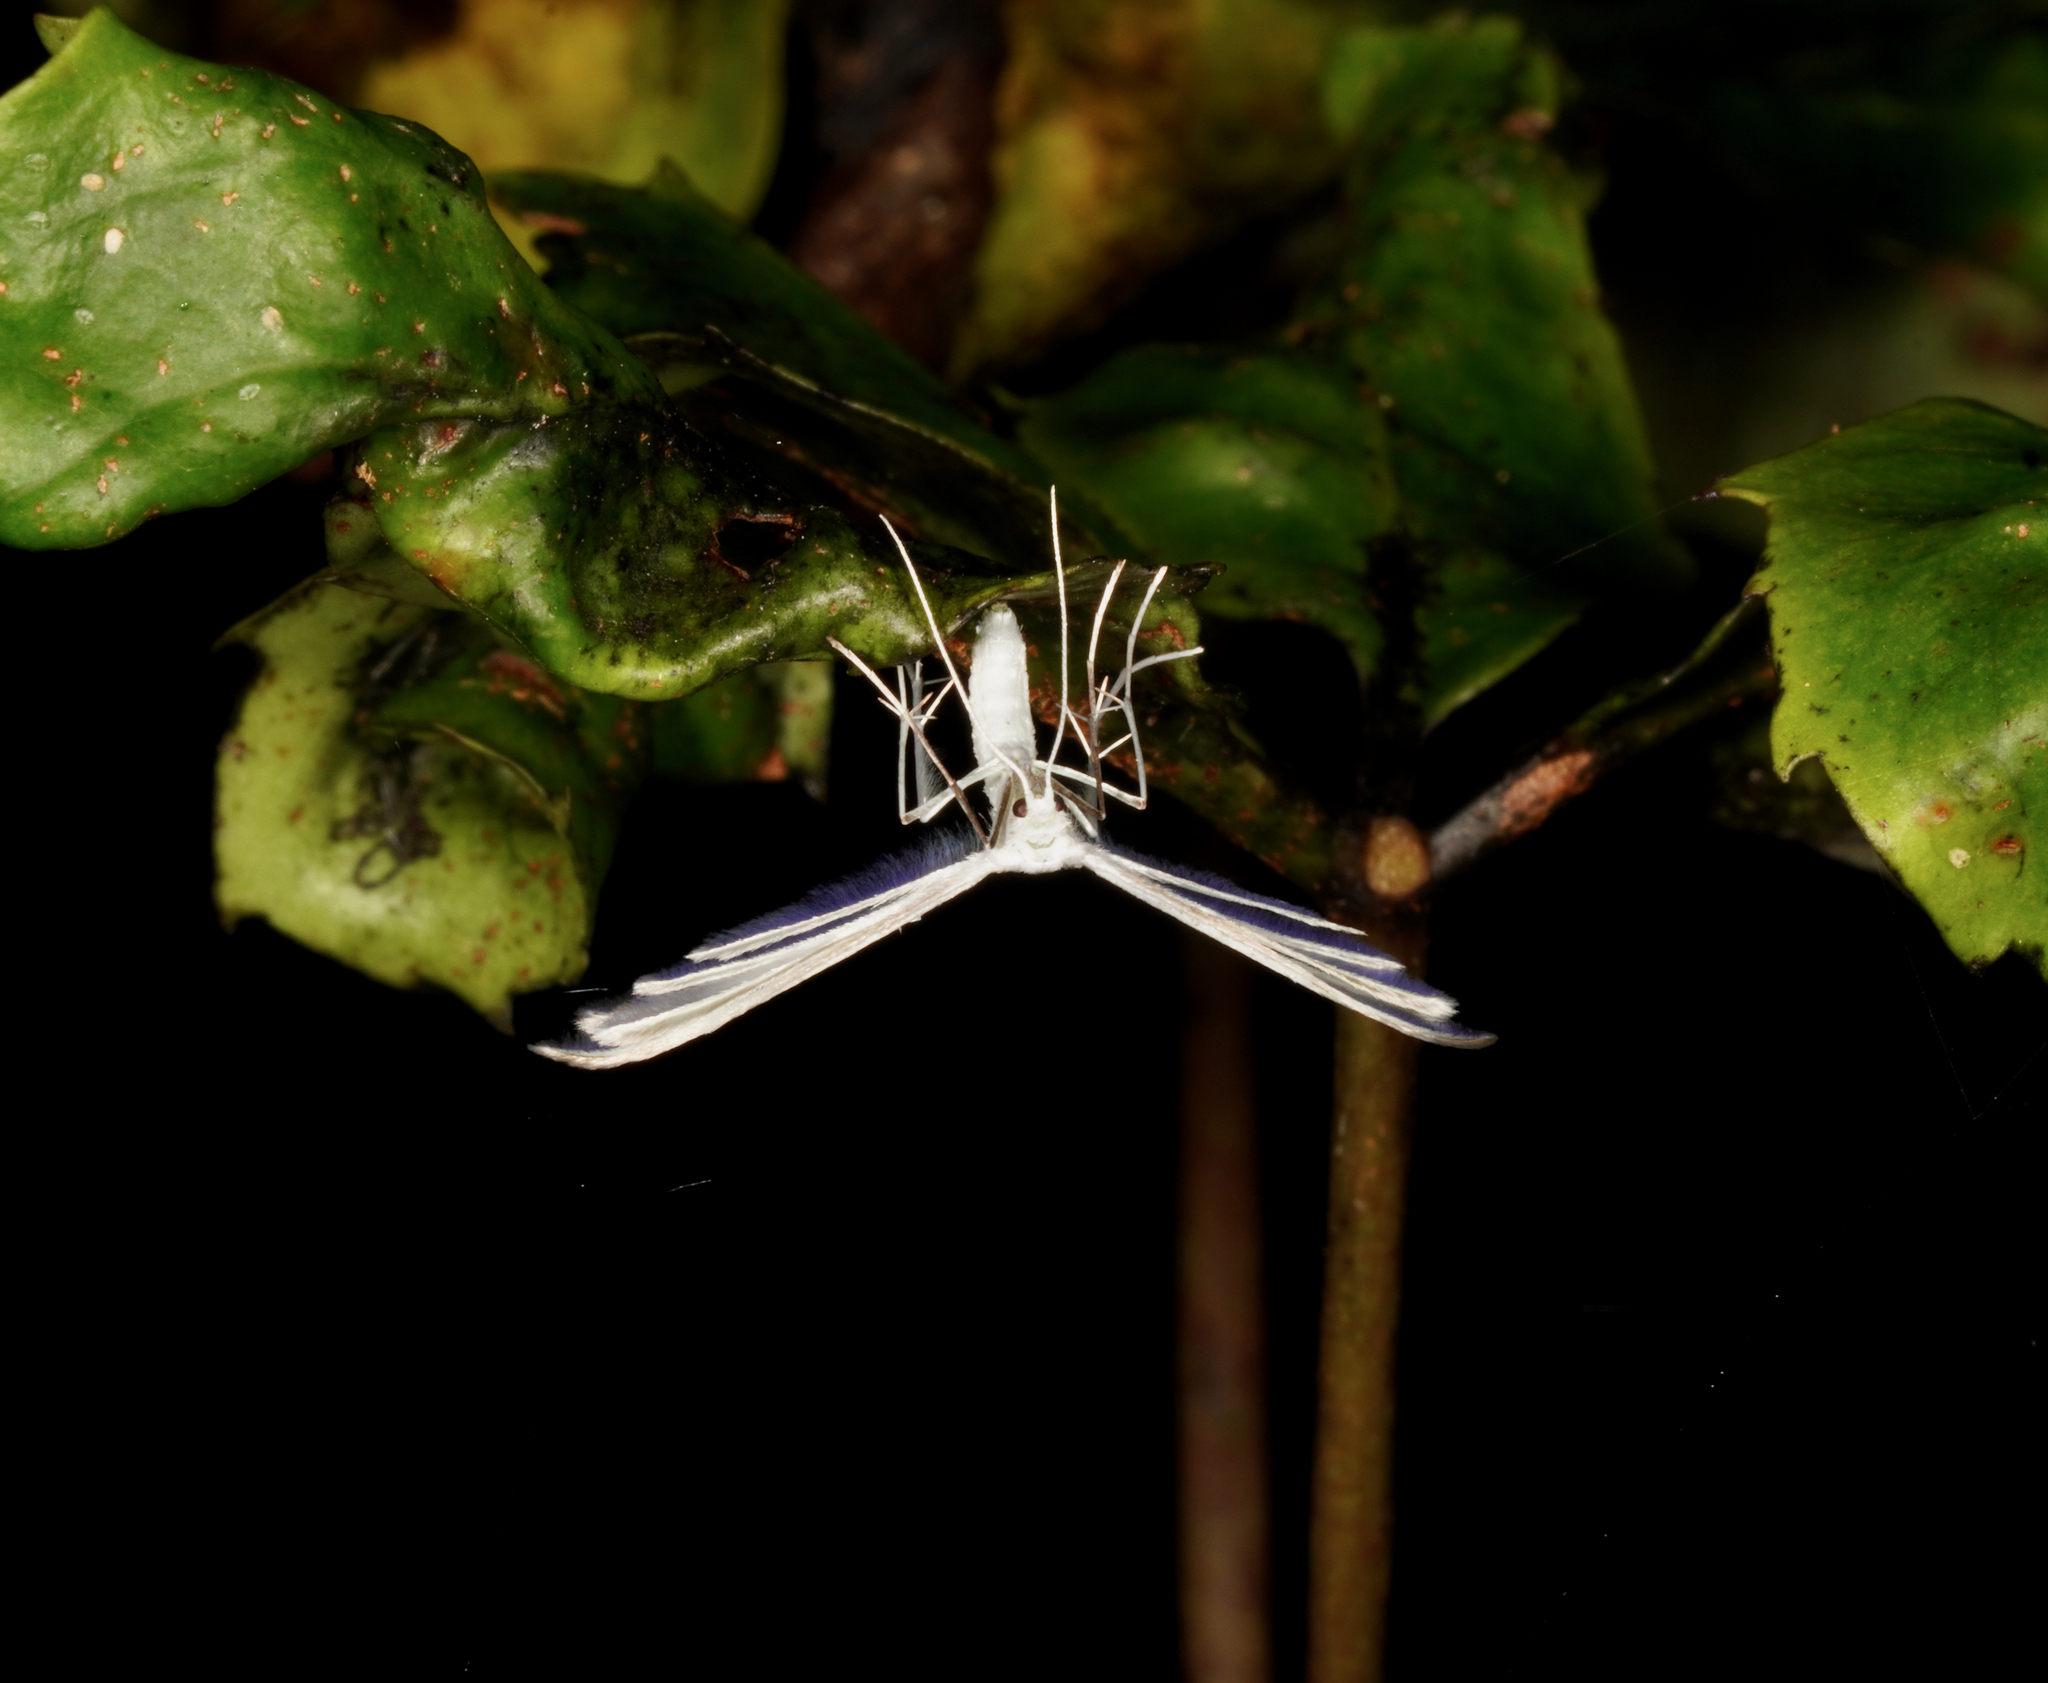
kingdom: Animalia
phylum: Arthropoda
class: Insecta
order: Lepidoptera
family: Pterophoridae
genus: Pterophorus
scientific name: Pterophorus monospilalis
